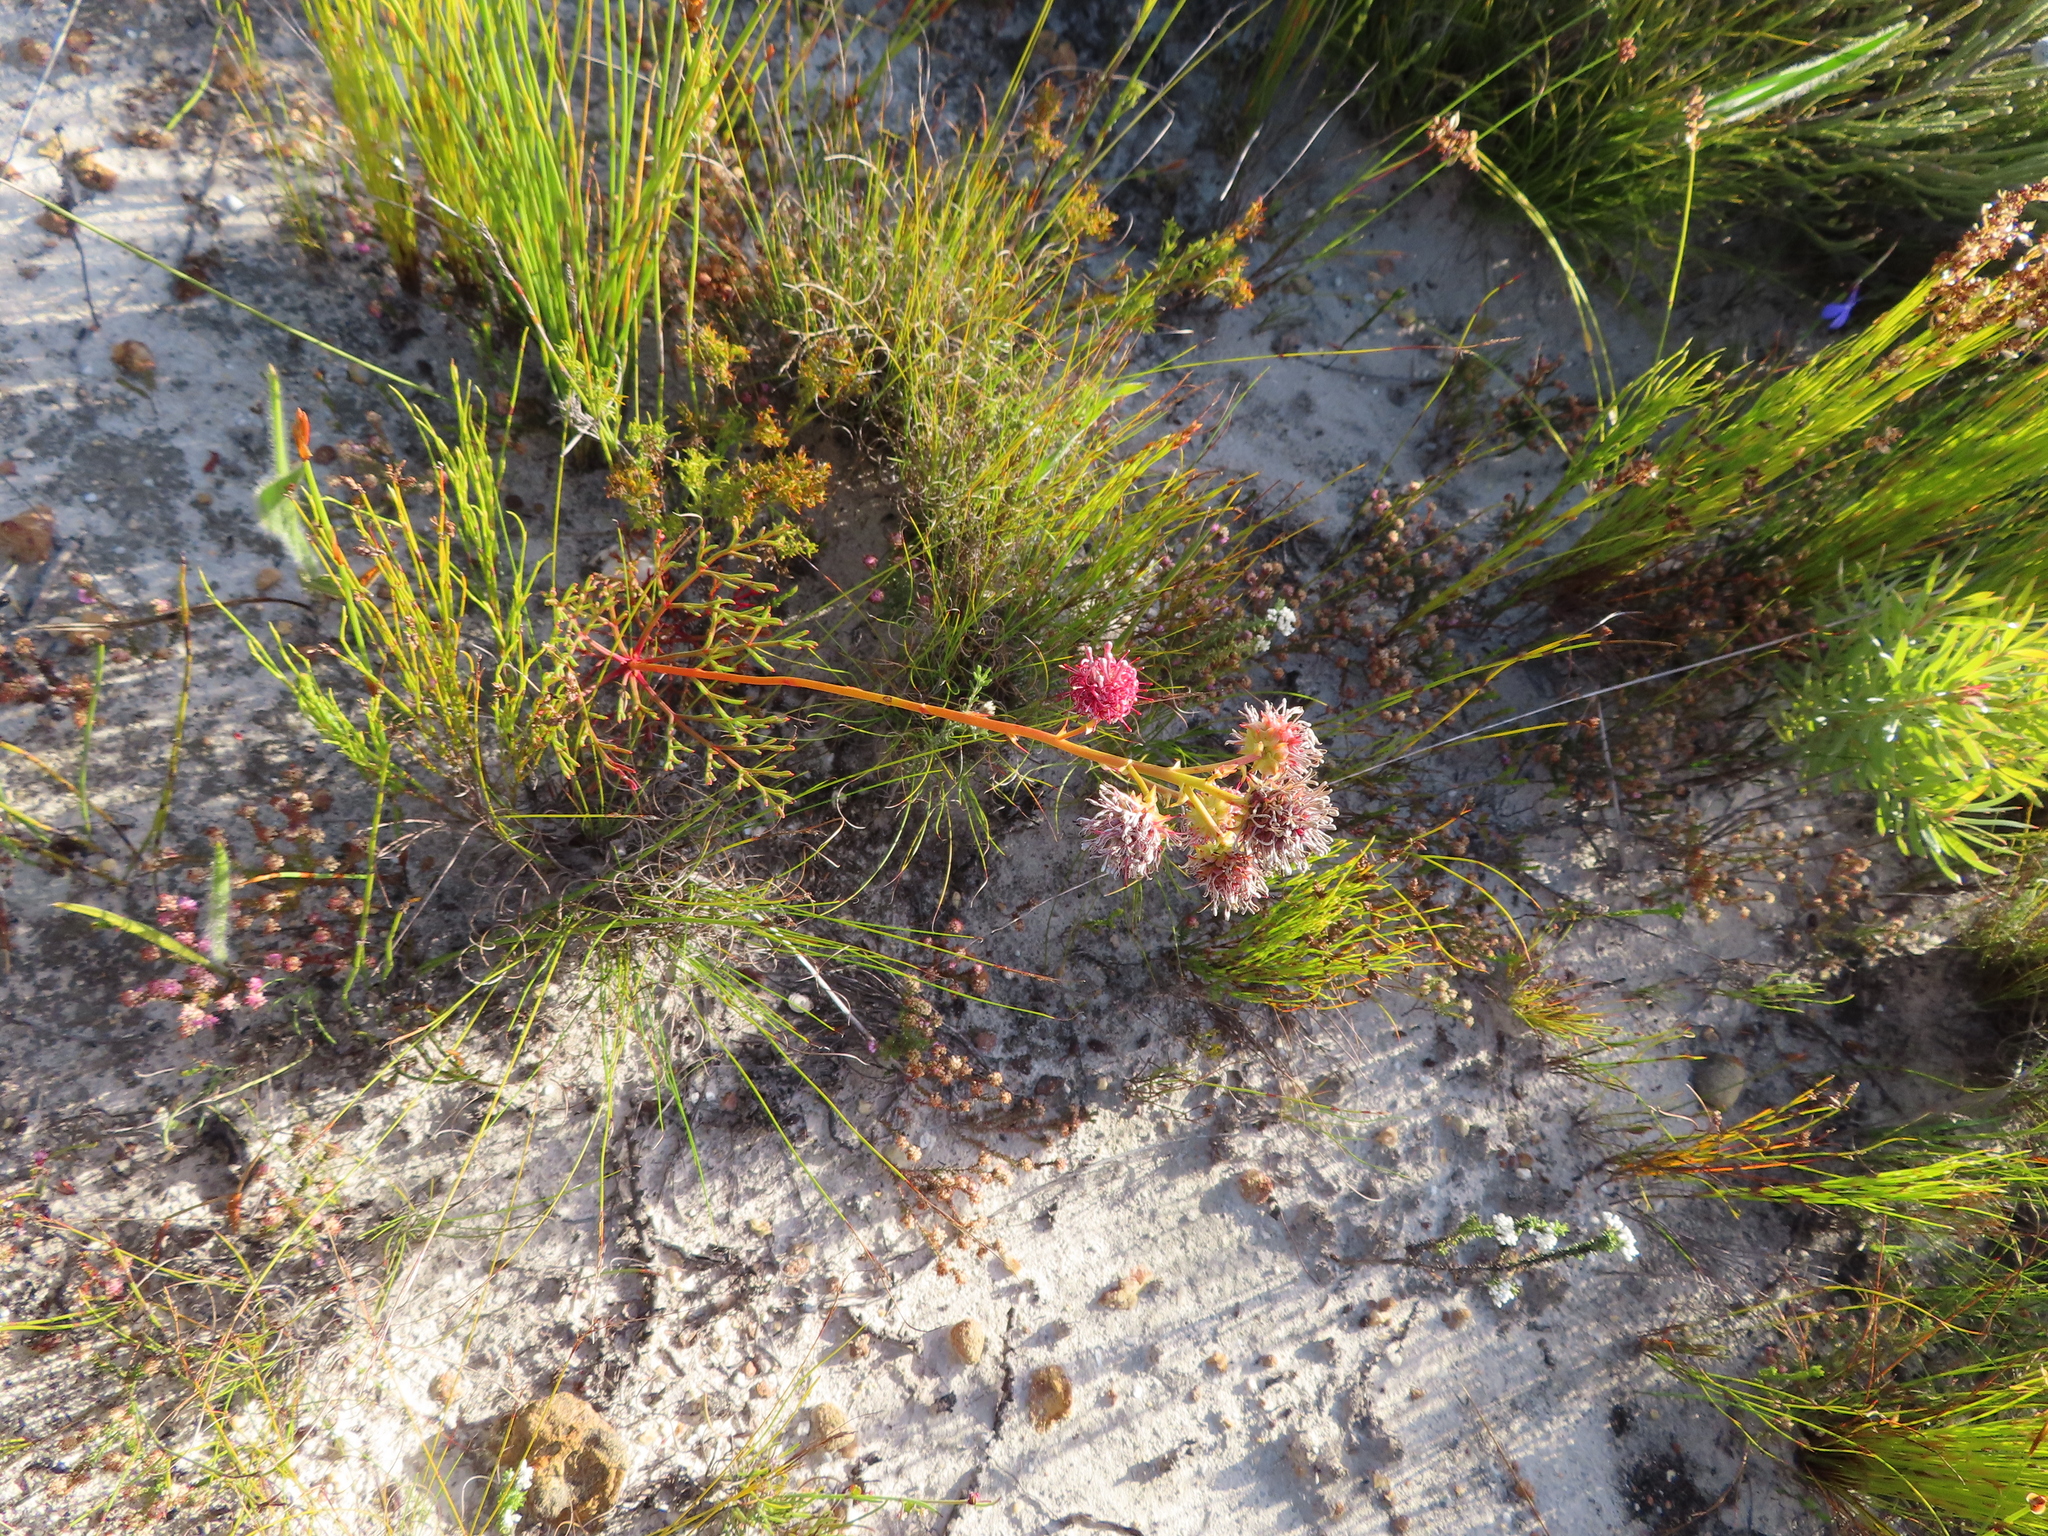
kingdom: Plantae
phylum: Tracheophyta
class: Magnoliopsida
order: Proteales
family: Proteaceae
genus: Serruria
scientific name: Serruria elongata
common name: Long-stalk spiderhead
